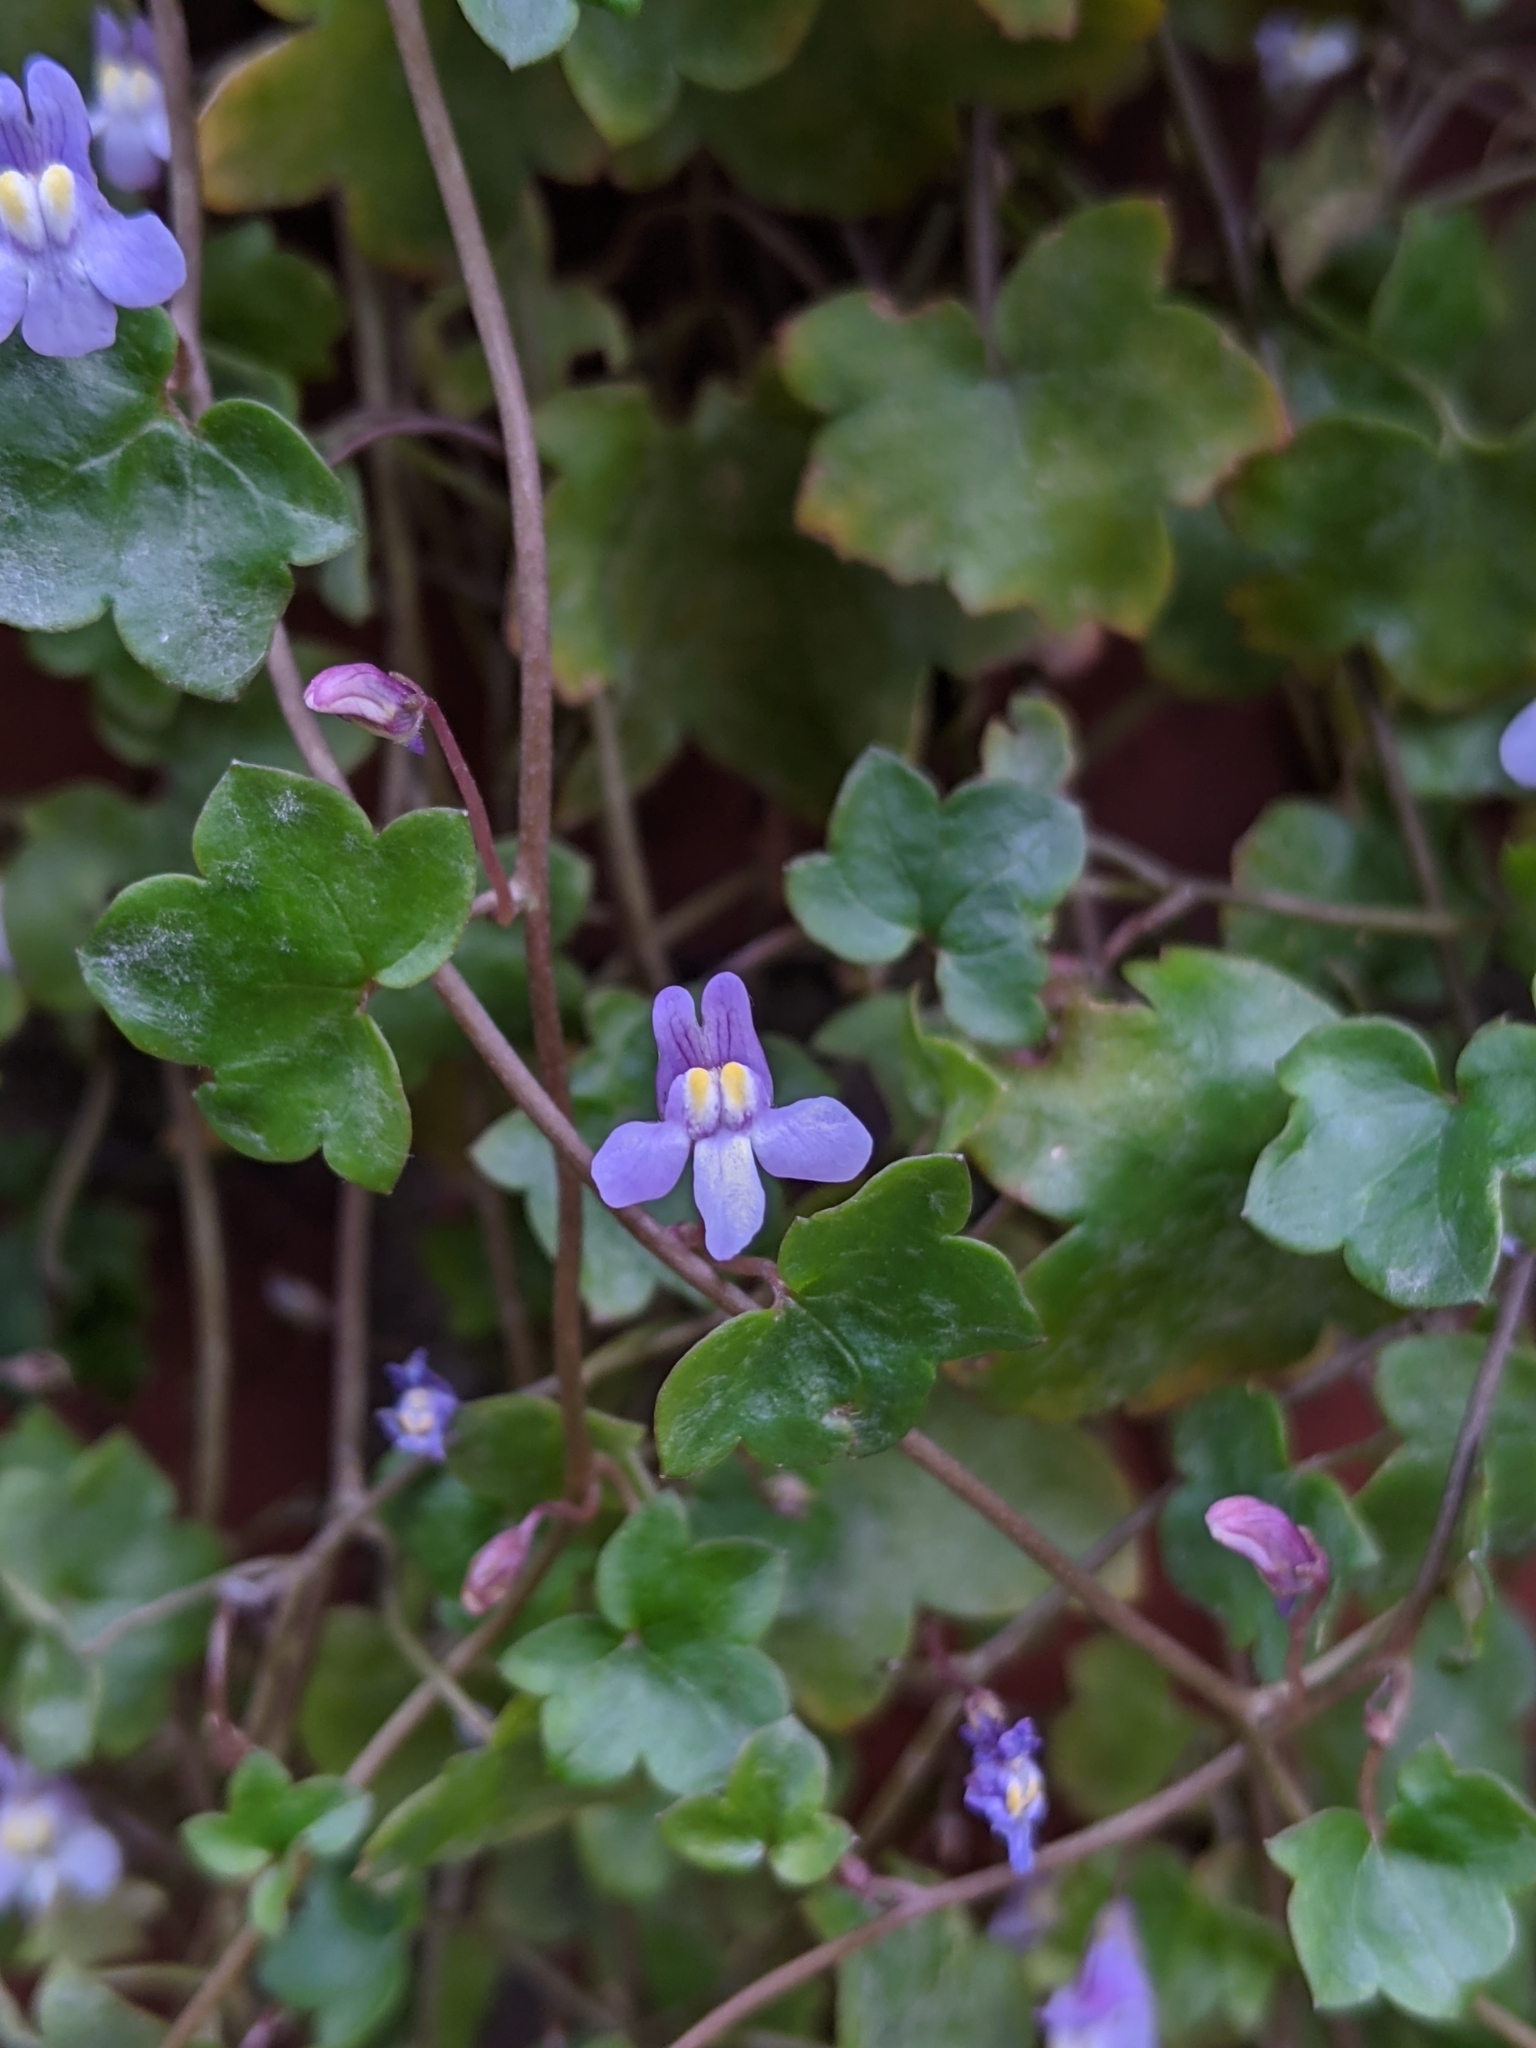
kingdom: Plantae
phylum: Tracheophyta
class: Magnoliopsida
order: Lamiales
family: Plantaginaceae
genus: Cymbalaria
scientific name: Cymbalaria muralis
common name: Ivy-leaved toadflax
